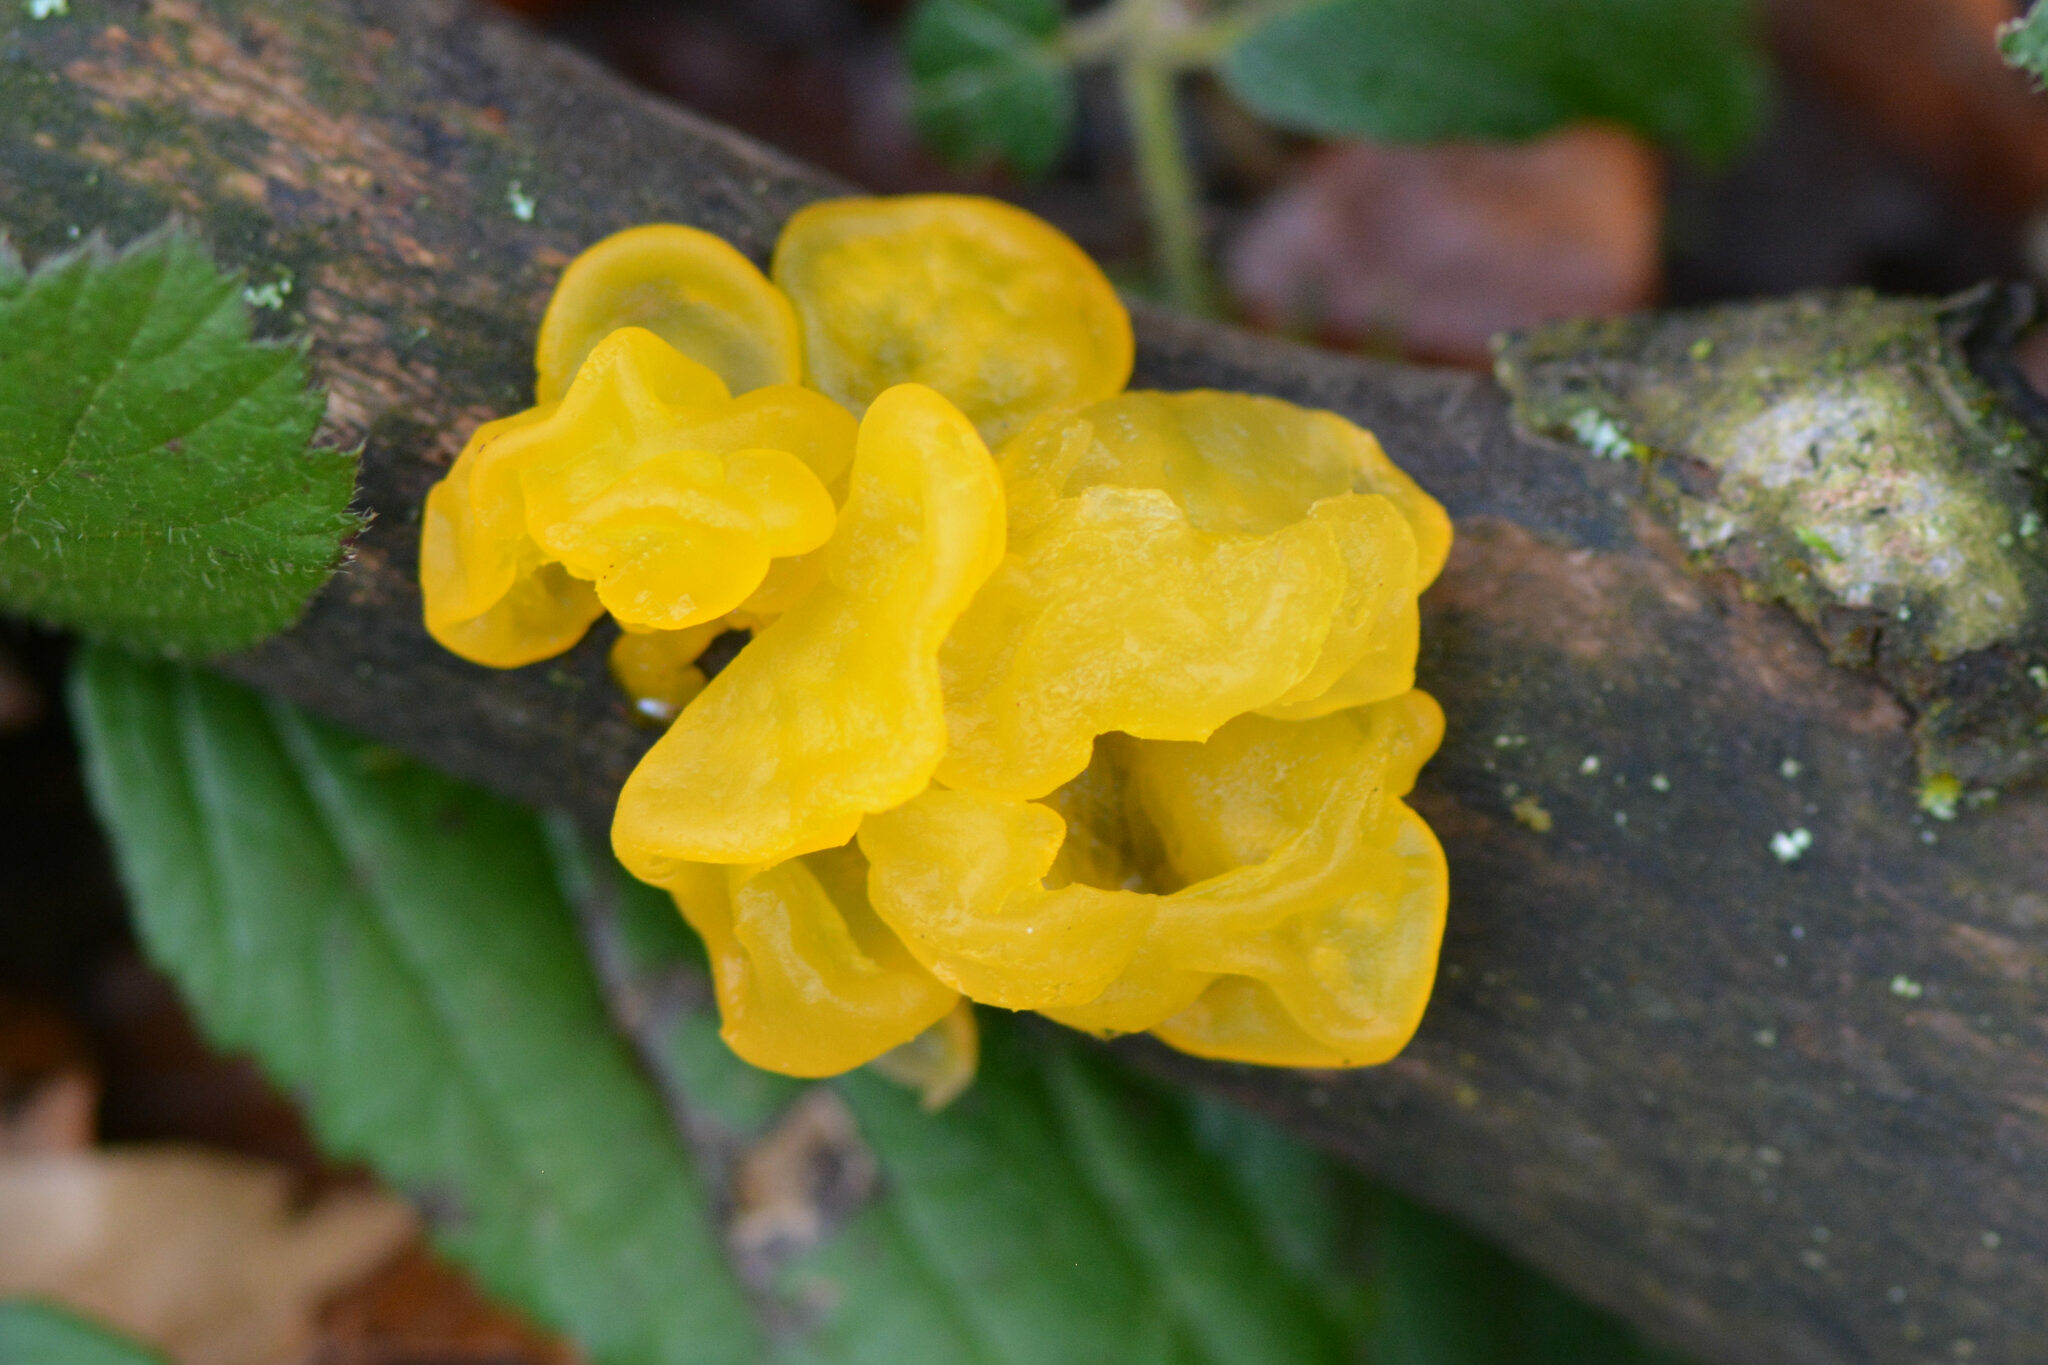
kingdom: Fungi
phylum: Basidiomycota
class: Tremellomycetes
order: Tremellales
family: Tremellaceae
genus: Tremella
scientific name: Tremella mesenterica
